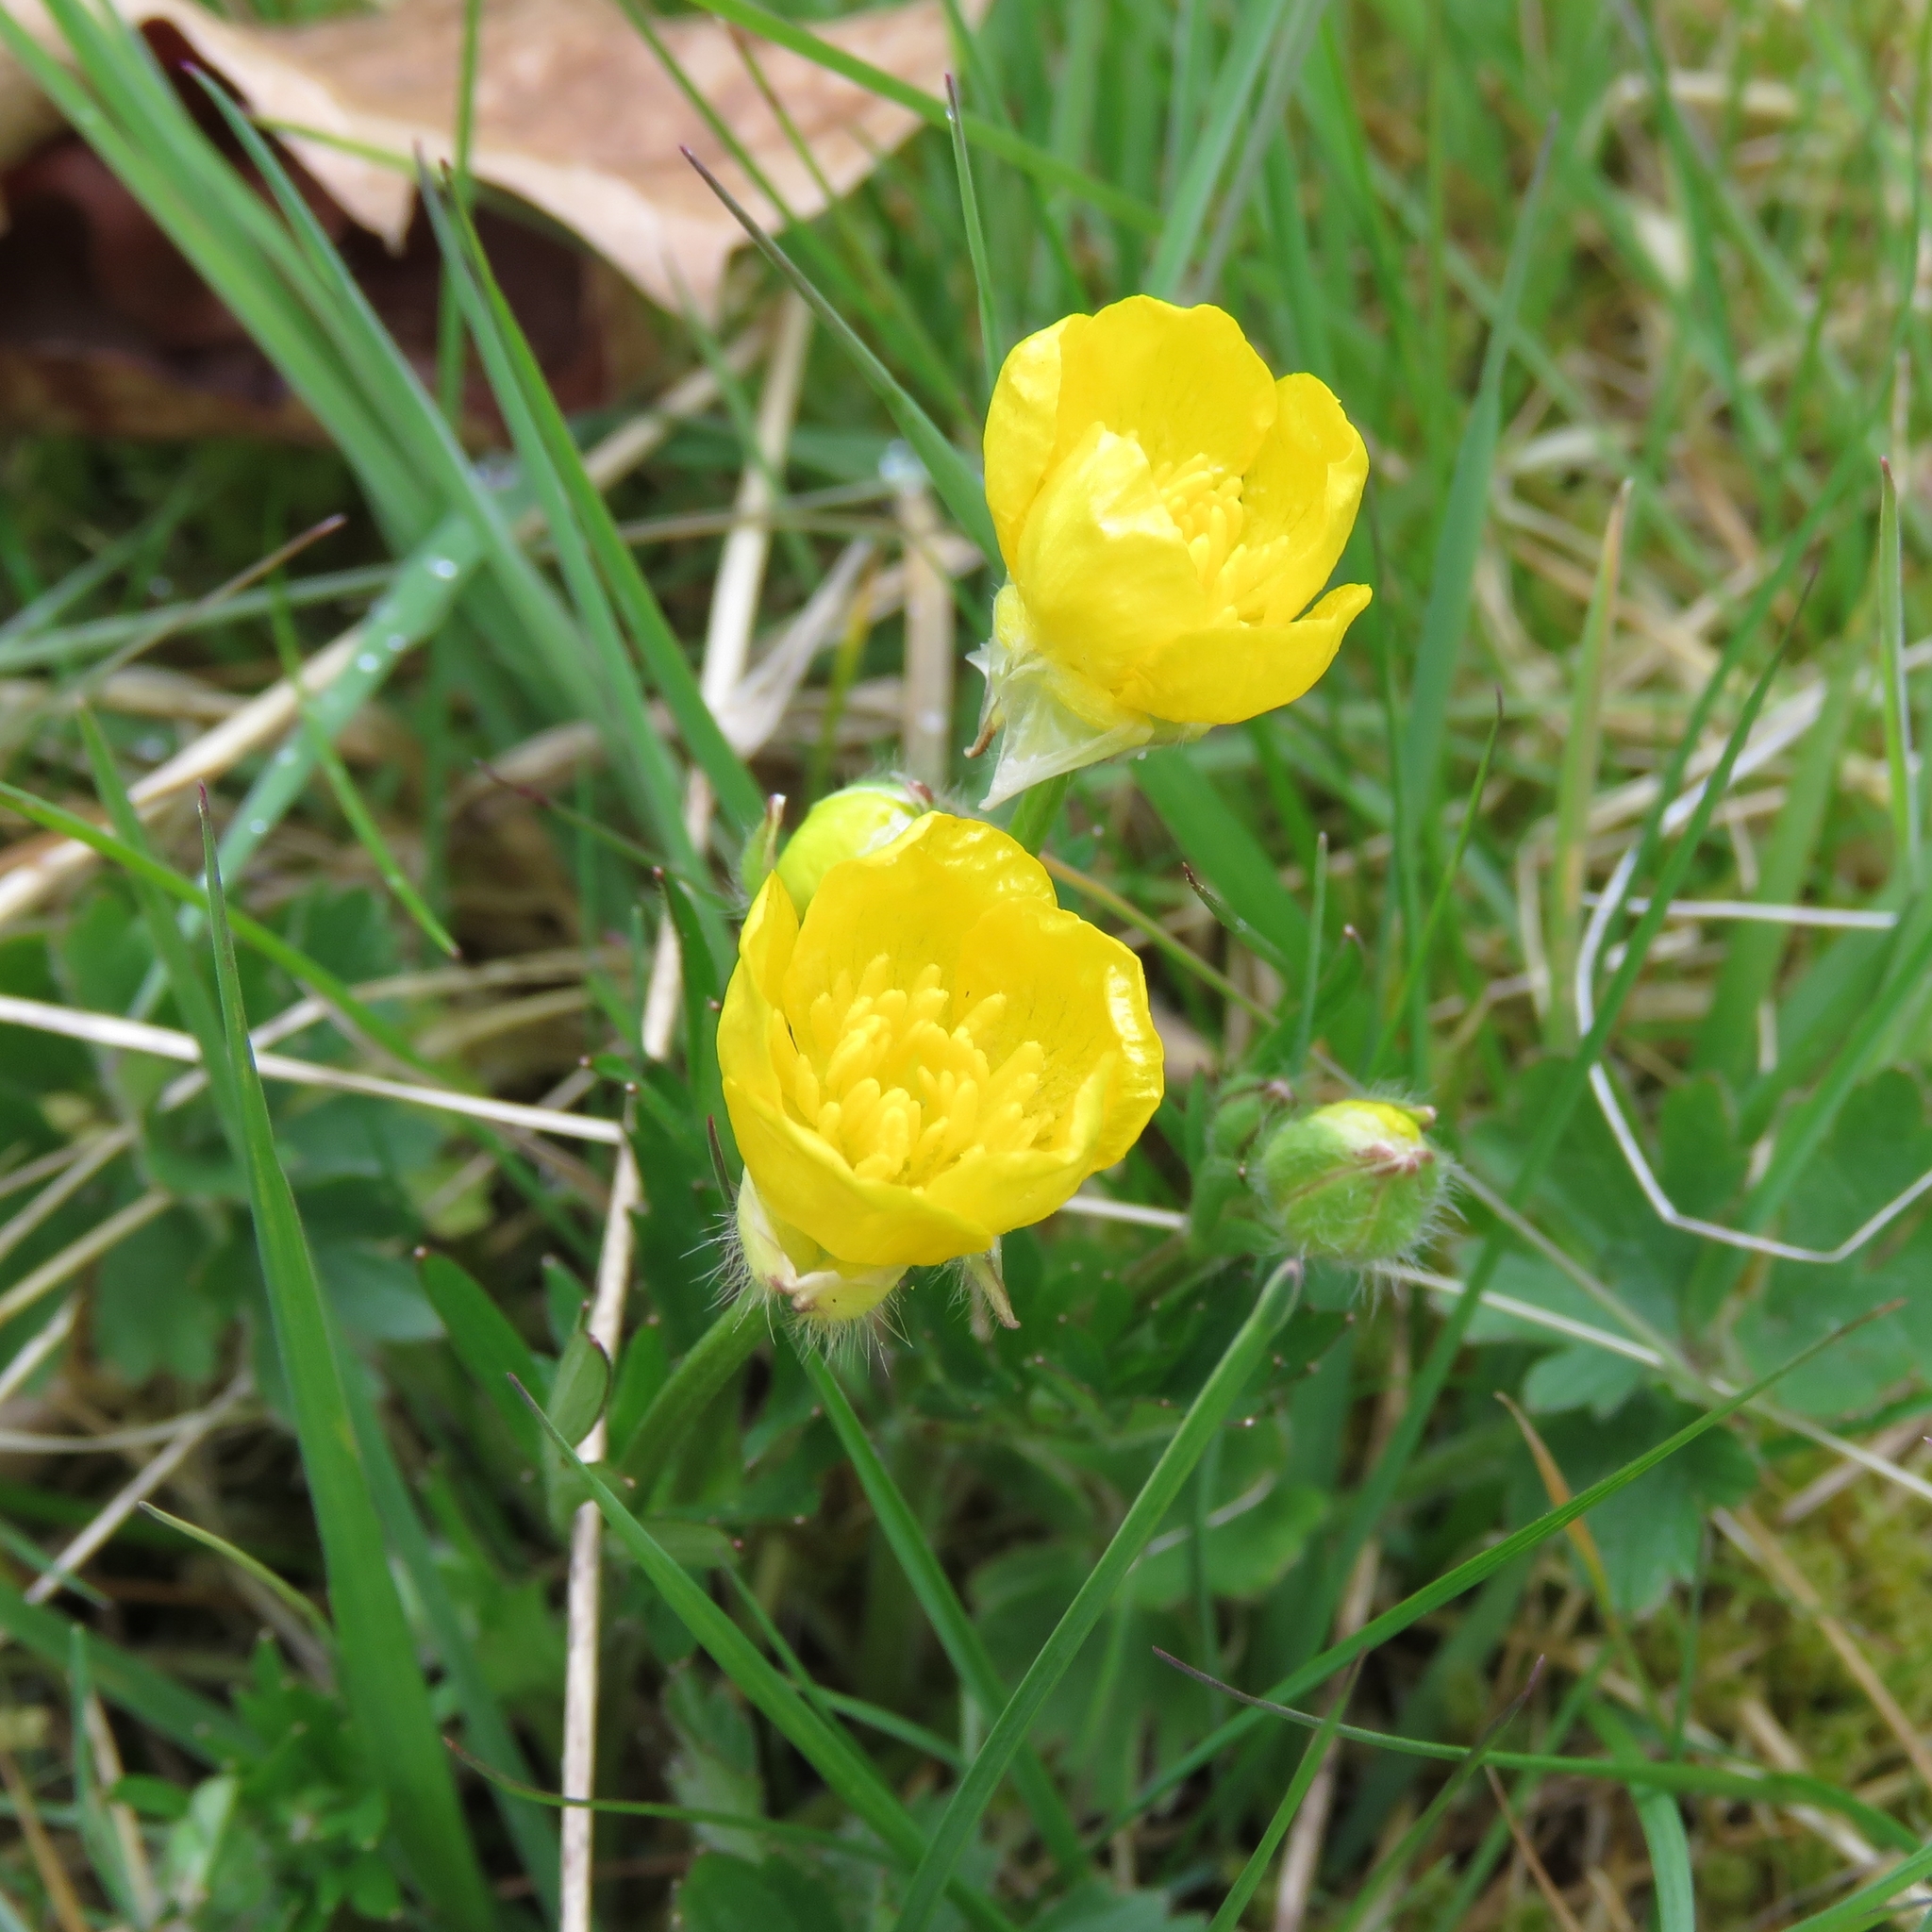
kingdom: Plantae
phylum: Tracheophyta
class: Magnoliopsida
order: Ranunculales
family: Ranunculaceae
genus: Ranunculus
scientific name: Ranunculus bulbosus
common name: Bulbous buttercup
